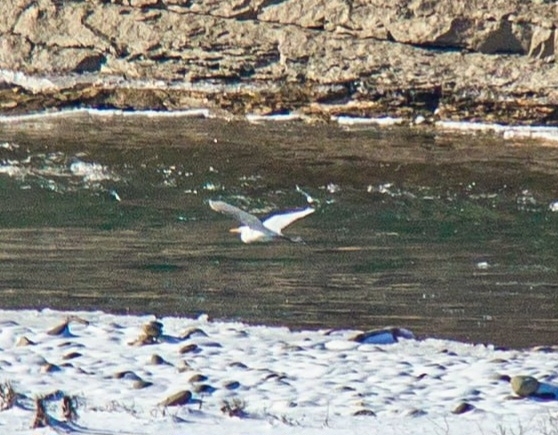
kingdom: Animalia
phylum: Chordata
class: Aves
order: Pelecaniformes
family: Ardeidae
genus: Ardea
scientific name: Ardea alba
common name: Great egret
